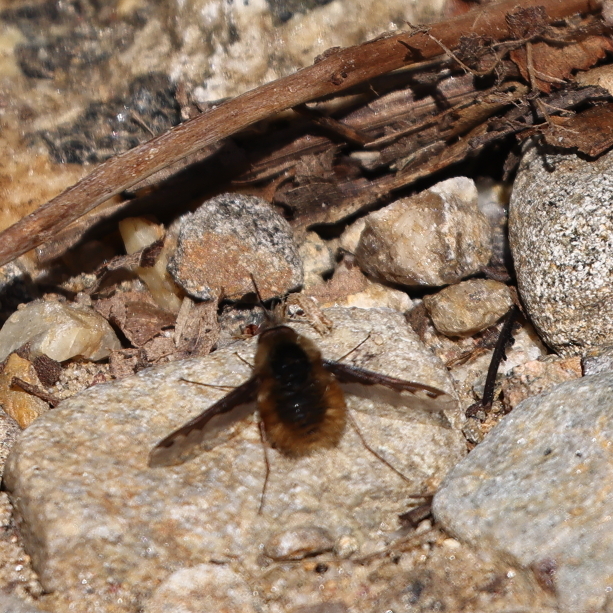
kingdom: Animalia
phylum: Arthropoda
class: Insecta
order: Diptera
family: Bombyliidae
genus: Bombylius
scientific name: Bombylius major
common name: Bee fly
